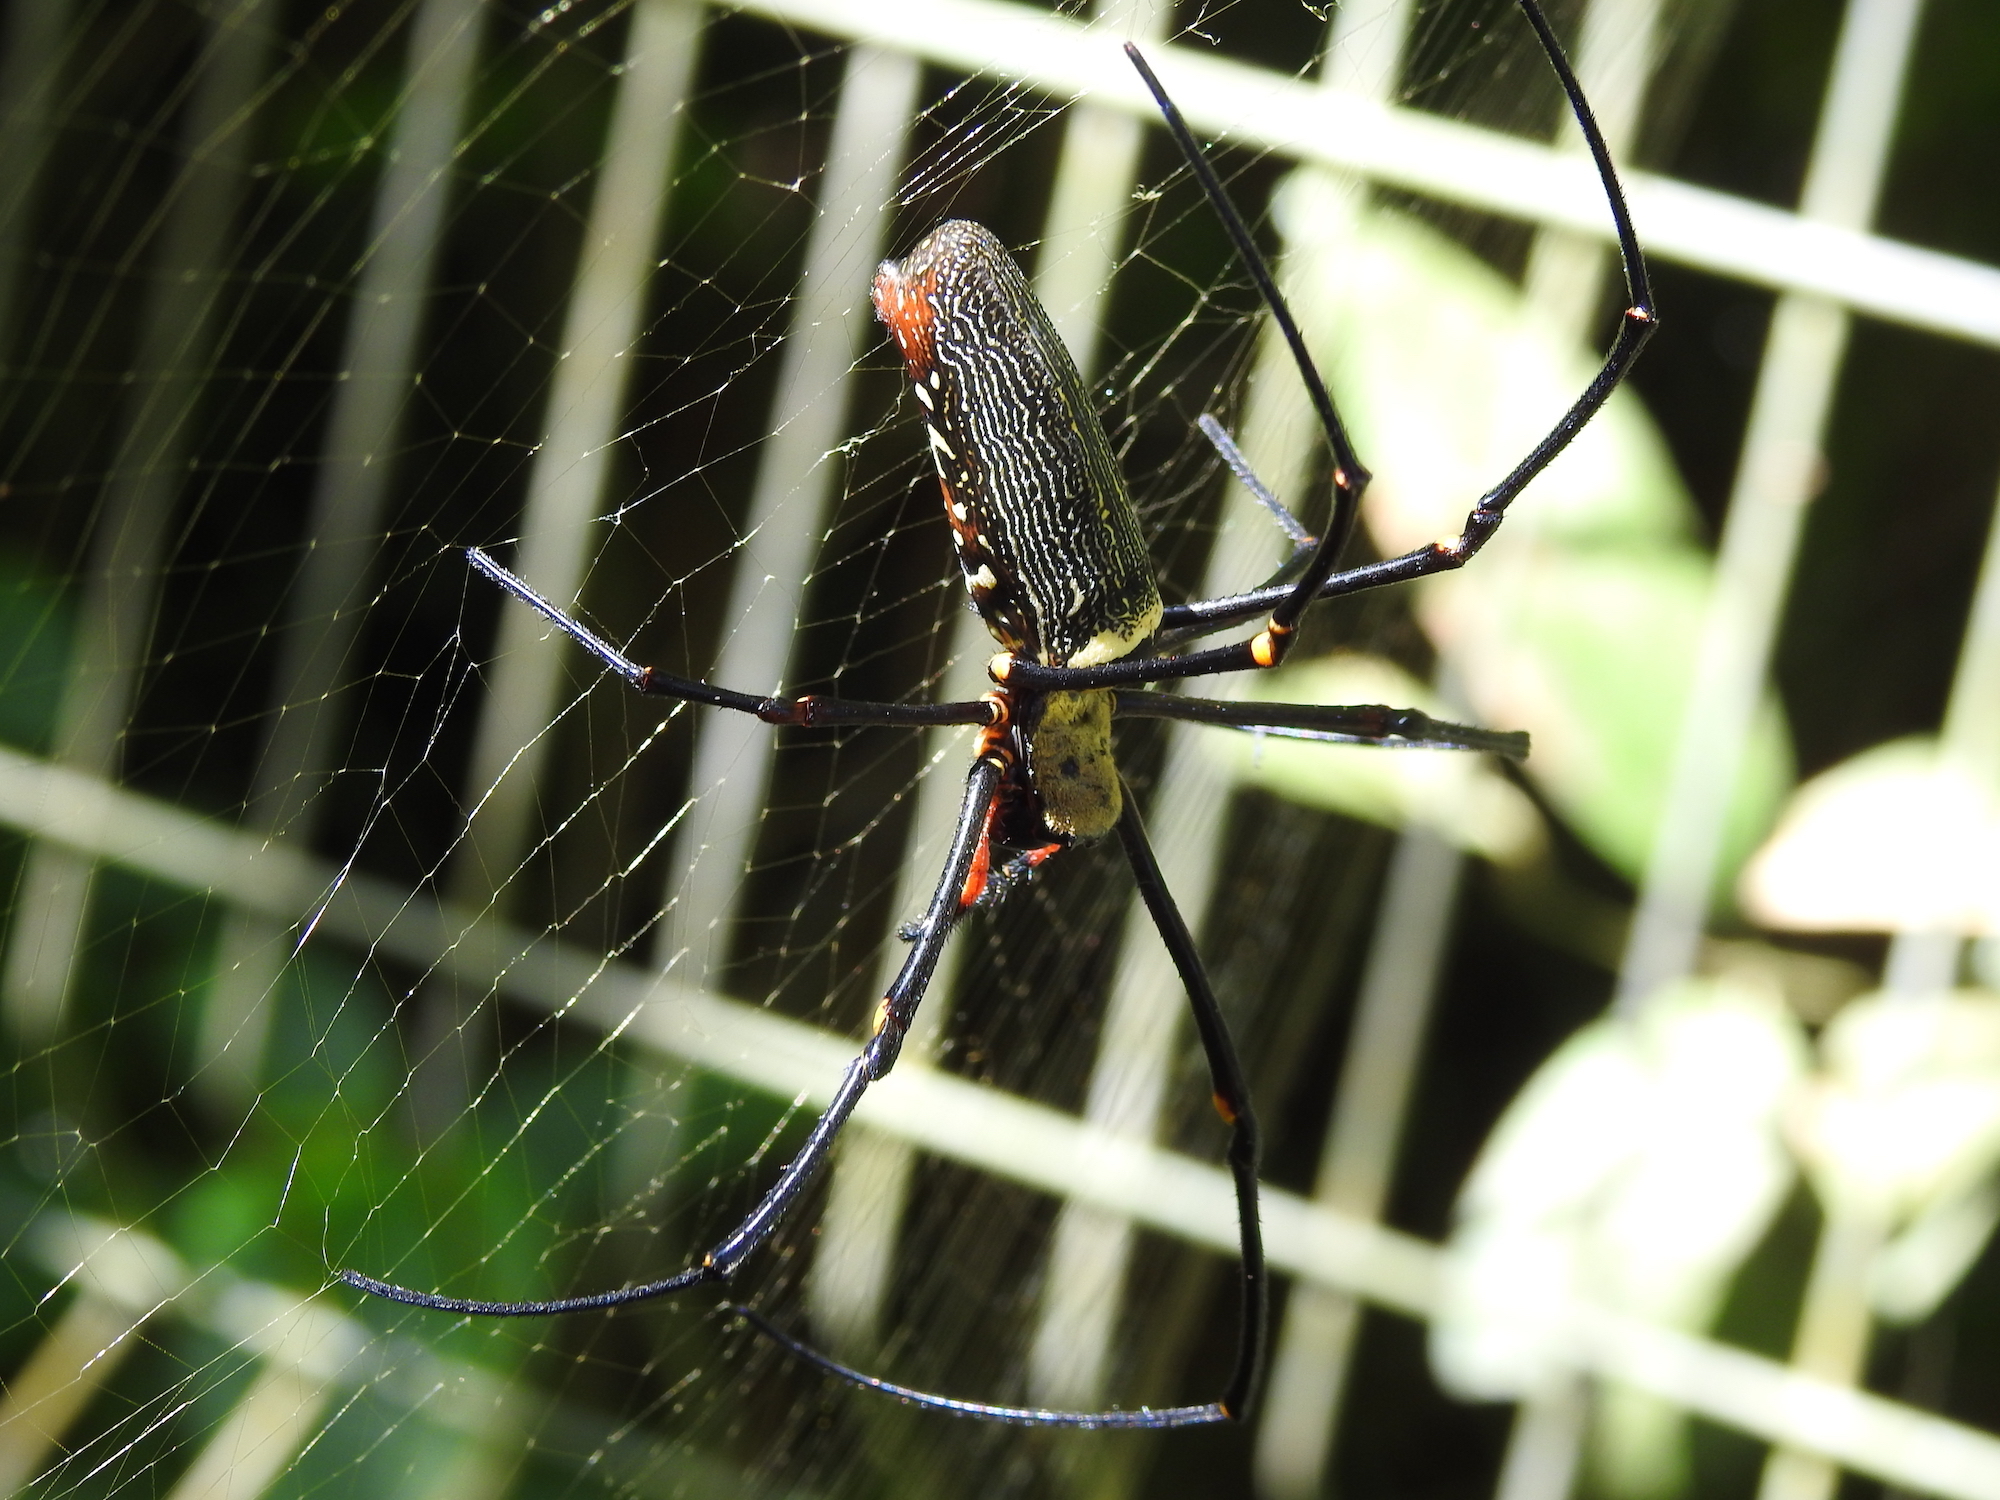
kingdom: Animalia
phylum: Arthropoda
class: Arachnida
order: Araneae
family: Araneidae
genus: Nephila
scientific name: Nephila pilipes
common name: Giant golden orb weaver
